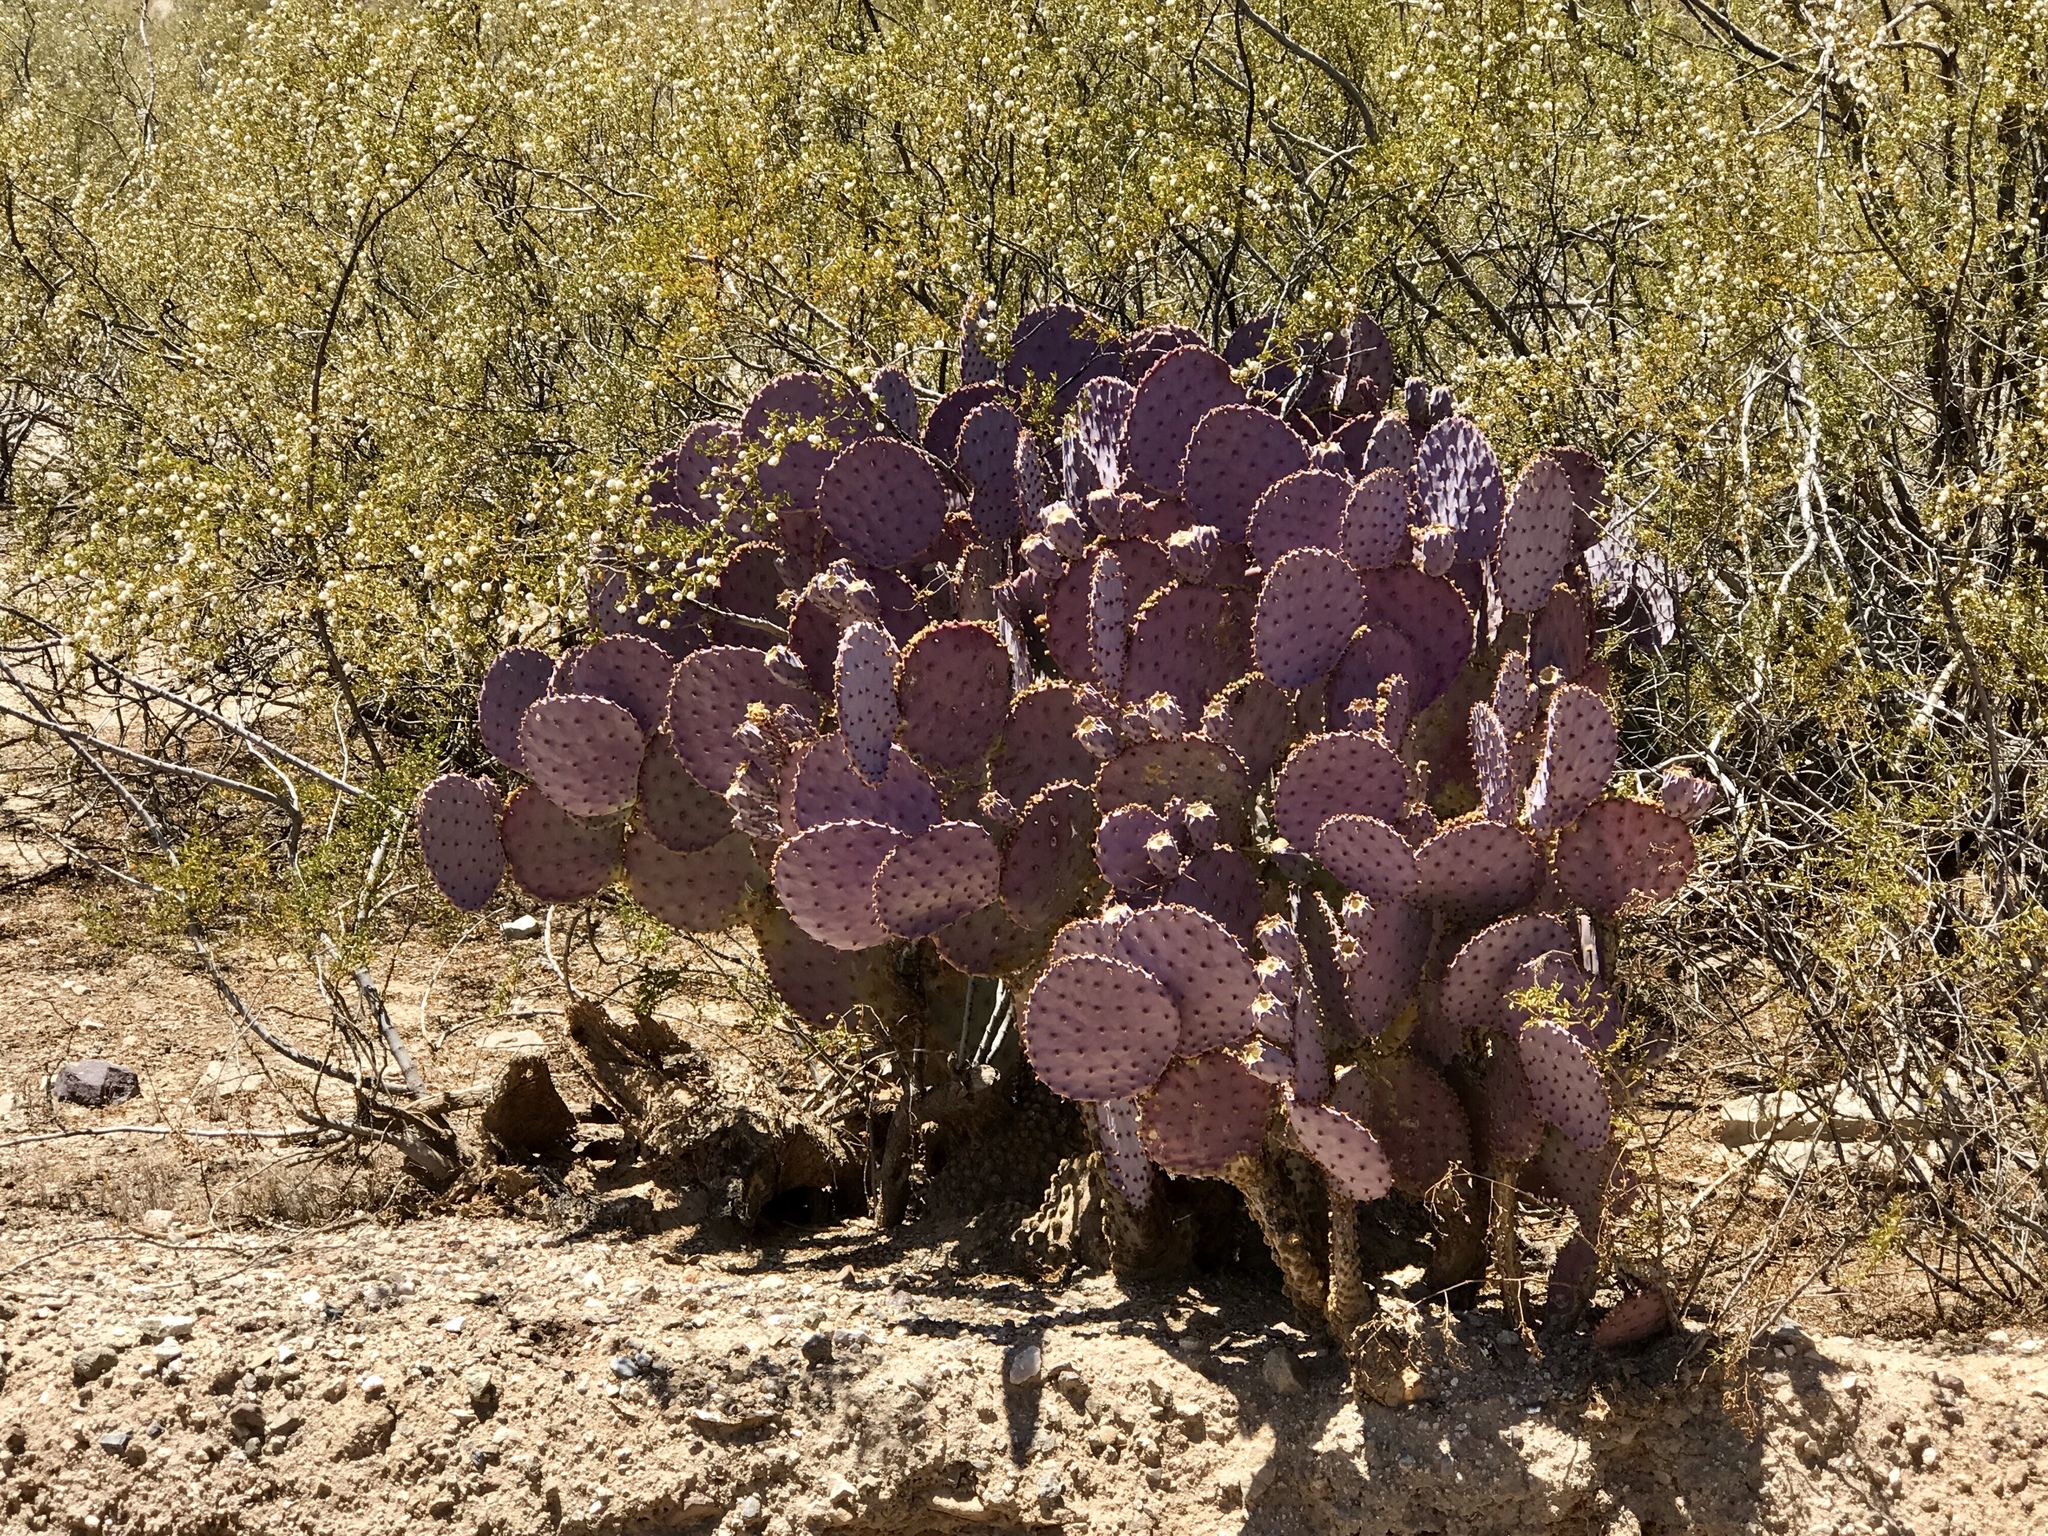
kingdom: Plantae
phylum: Tracheophyta
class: Magnoliopsida
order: Caryophyllales
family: Cactaceae
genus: Opuntia
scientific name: Opuntia gosseliniana
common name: Violet prickly-pear
